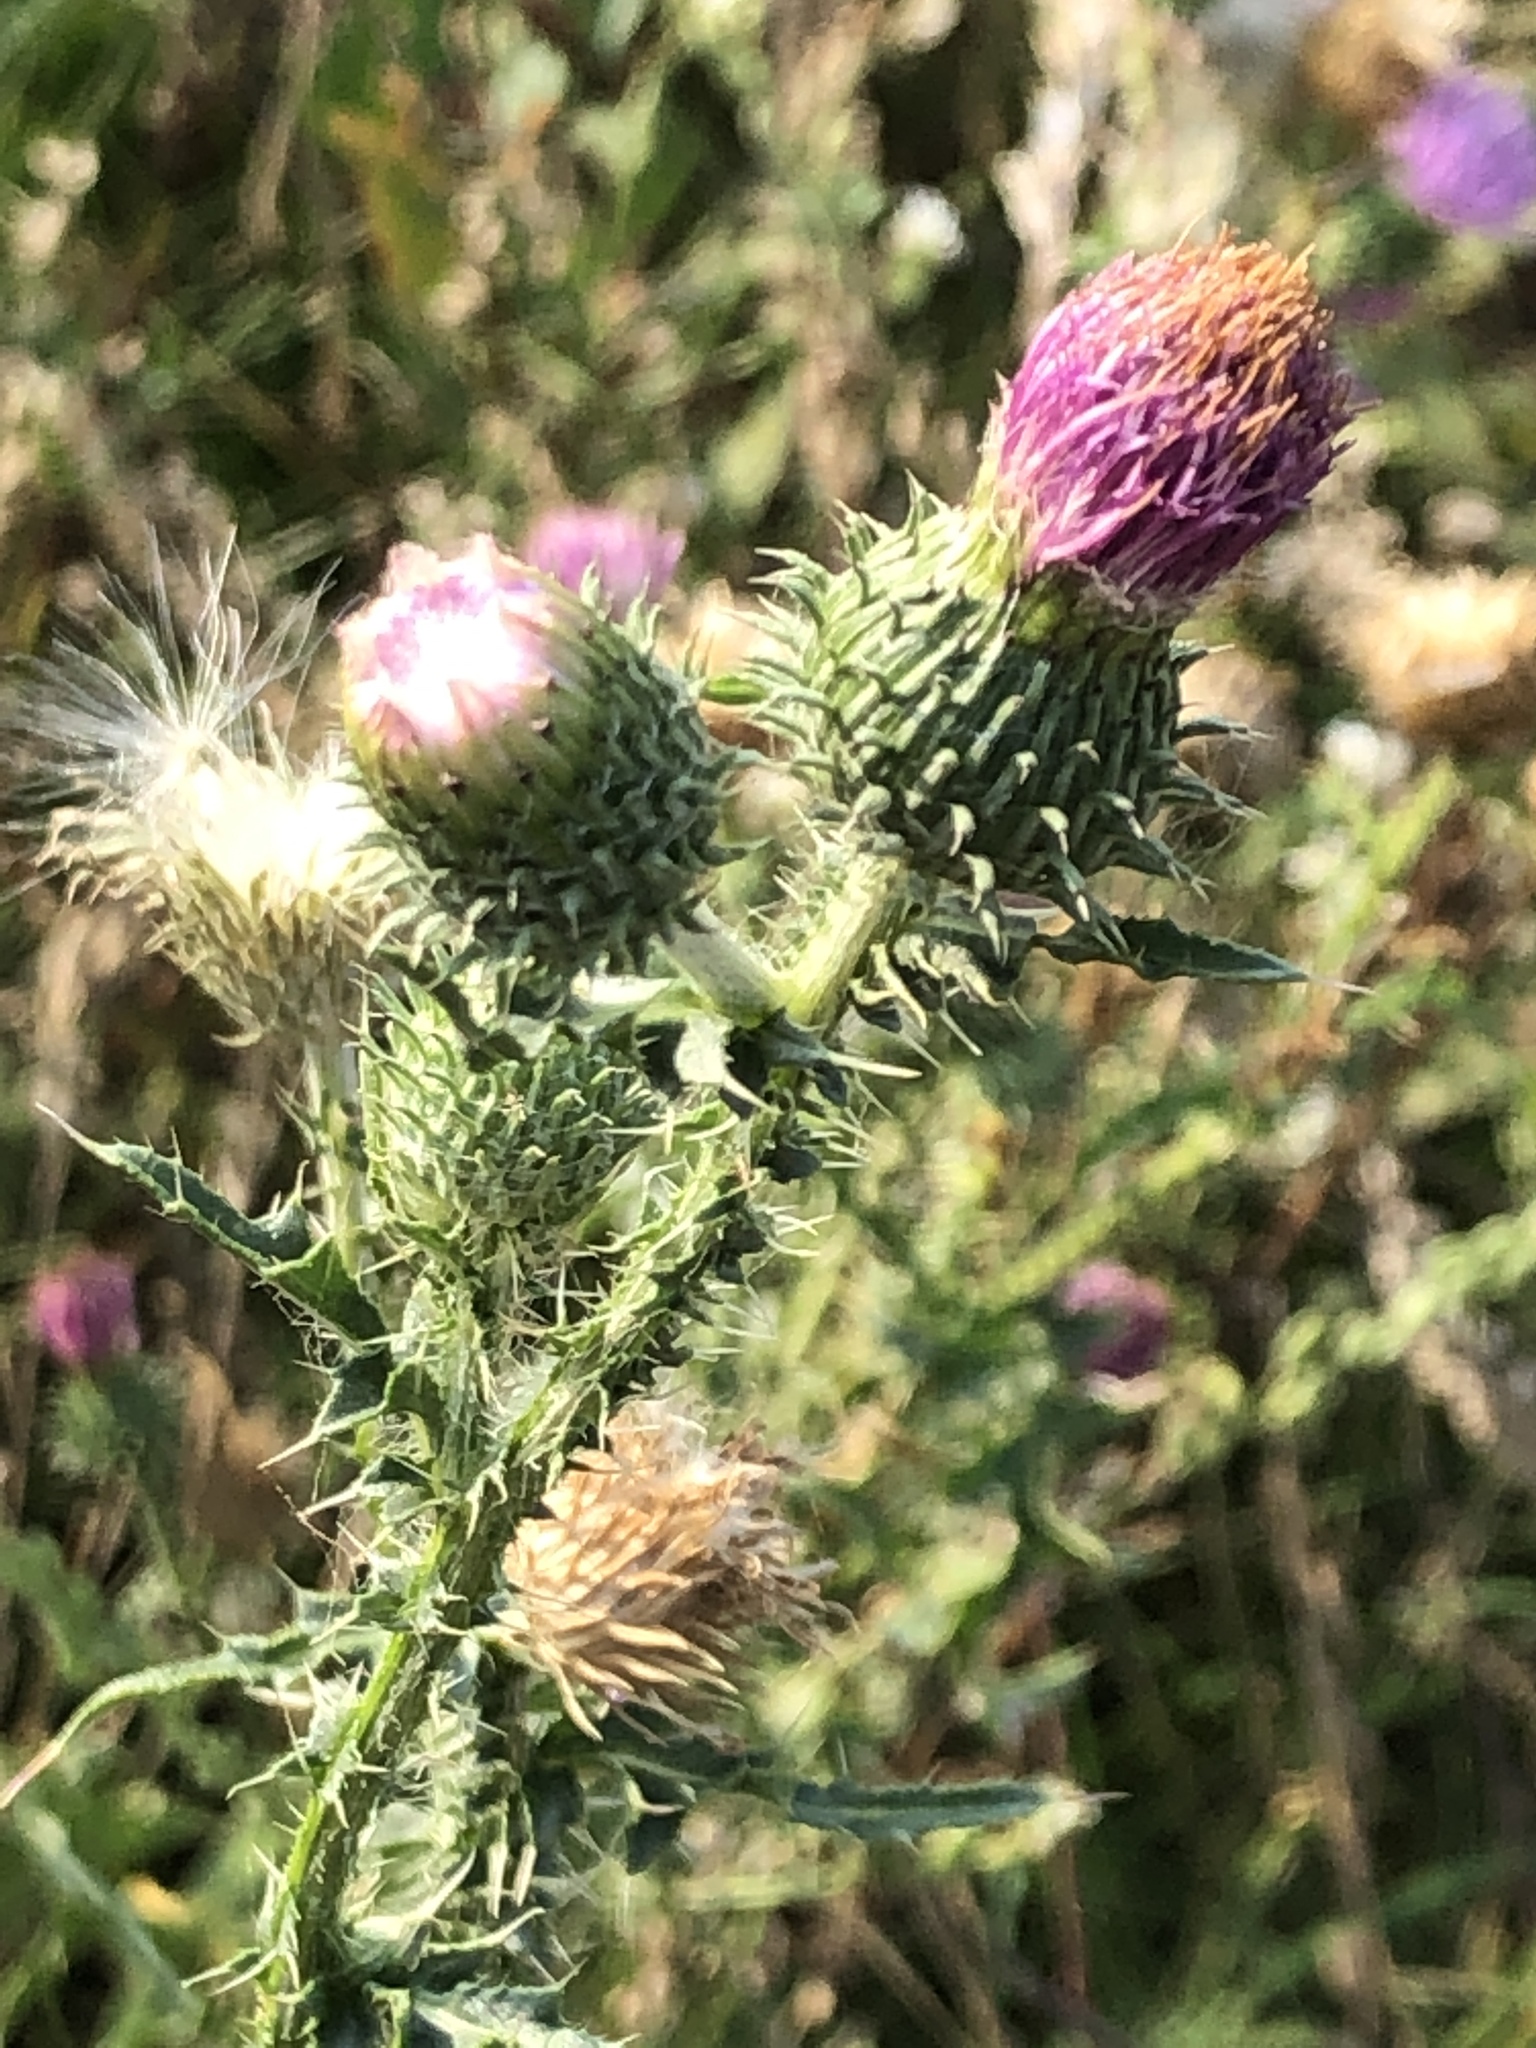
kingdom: Plantae
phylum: Tracheophyta
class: Magnoliopsida
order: Asterales
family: Asteraceae
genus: Carduus
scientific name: Carduus acanthoides
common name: Plumeless thistle
